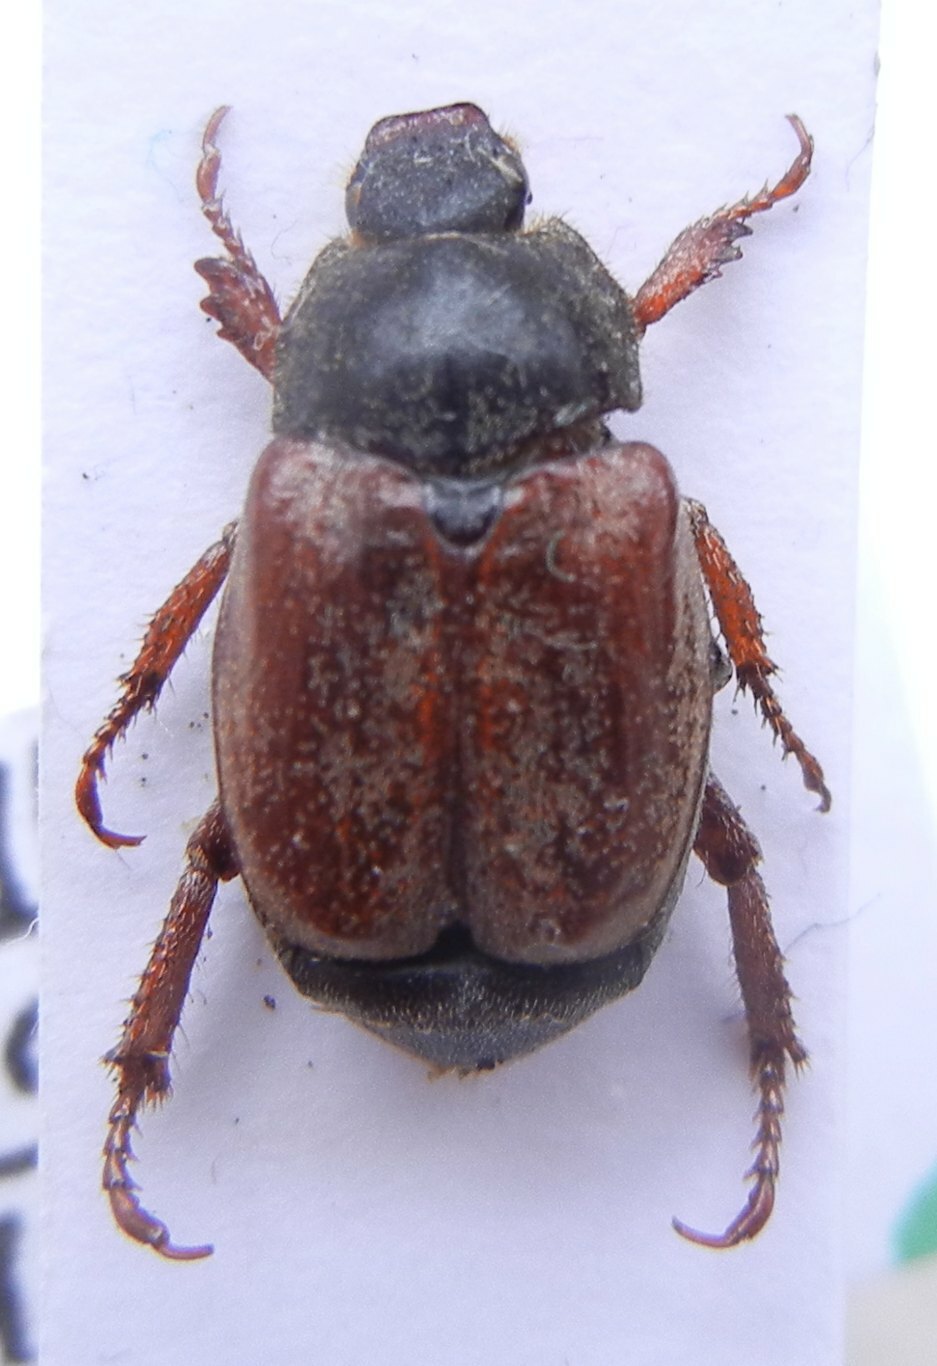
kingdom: Animalia
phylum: Arthropoda
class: Insecta
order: Coleoptera
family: Scarabaeidae
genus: Hoplia
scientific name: Hoplia philanthus
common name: Welsh chafer
